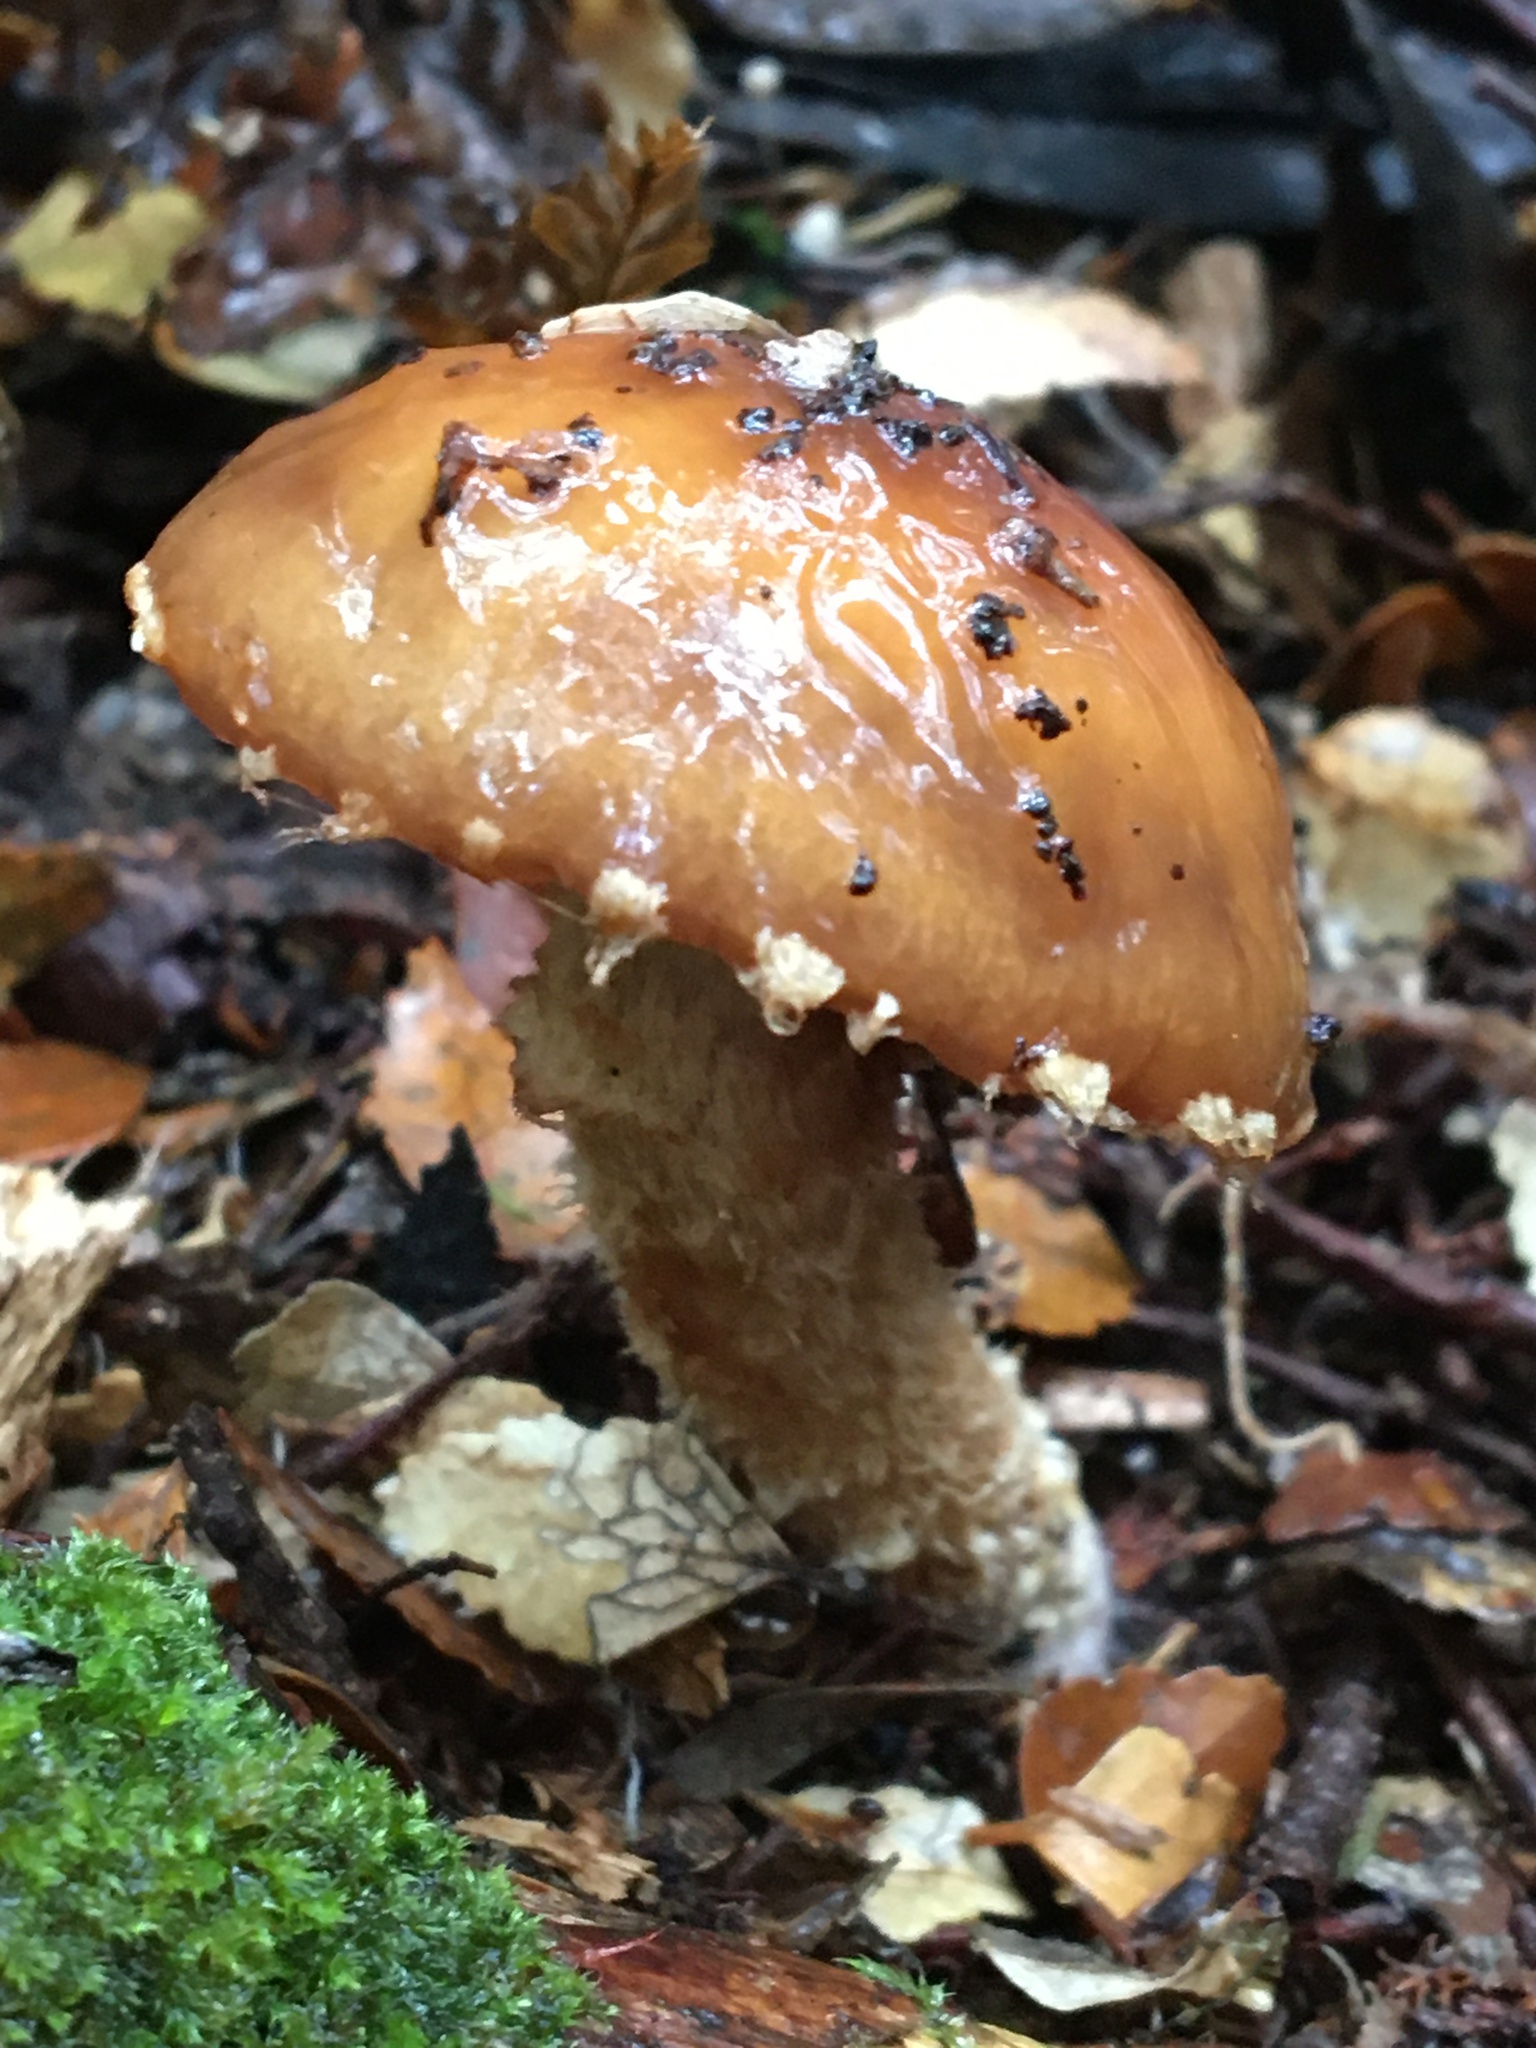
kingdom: Fungi
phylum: Basidiomycota
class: Agaricomycetes
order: Agaricales
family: Cortinariaceae
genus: Cortinarius
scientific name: Cortinarius perfoetens
